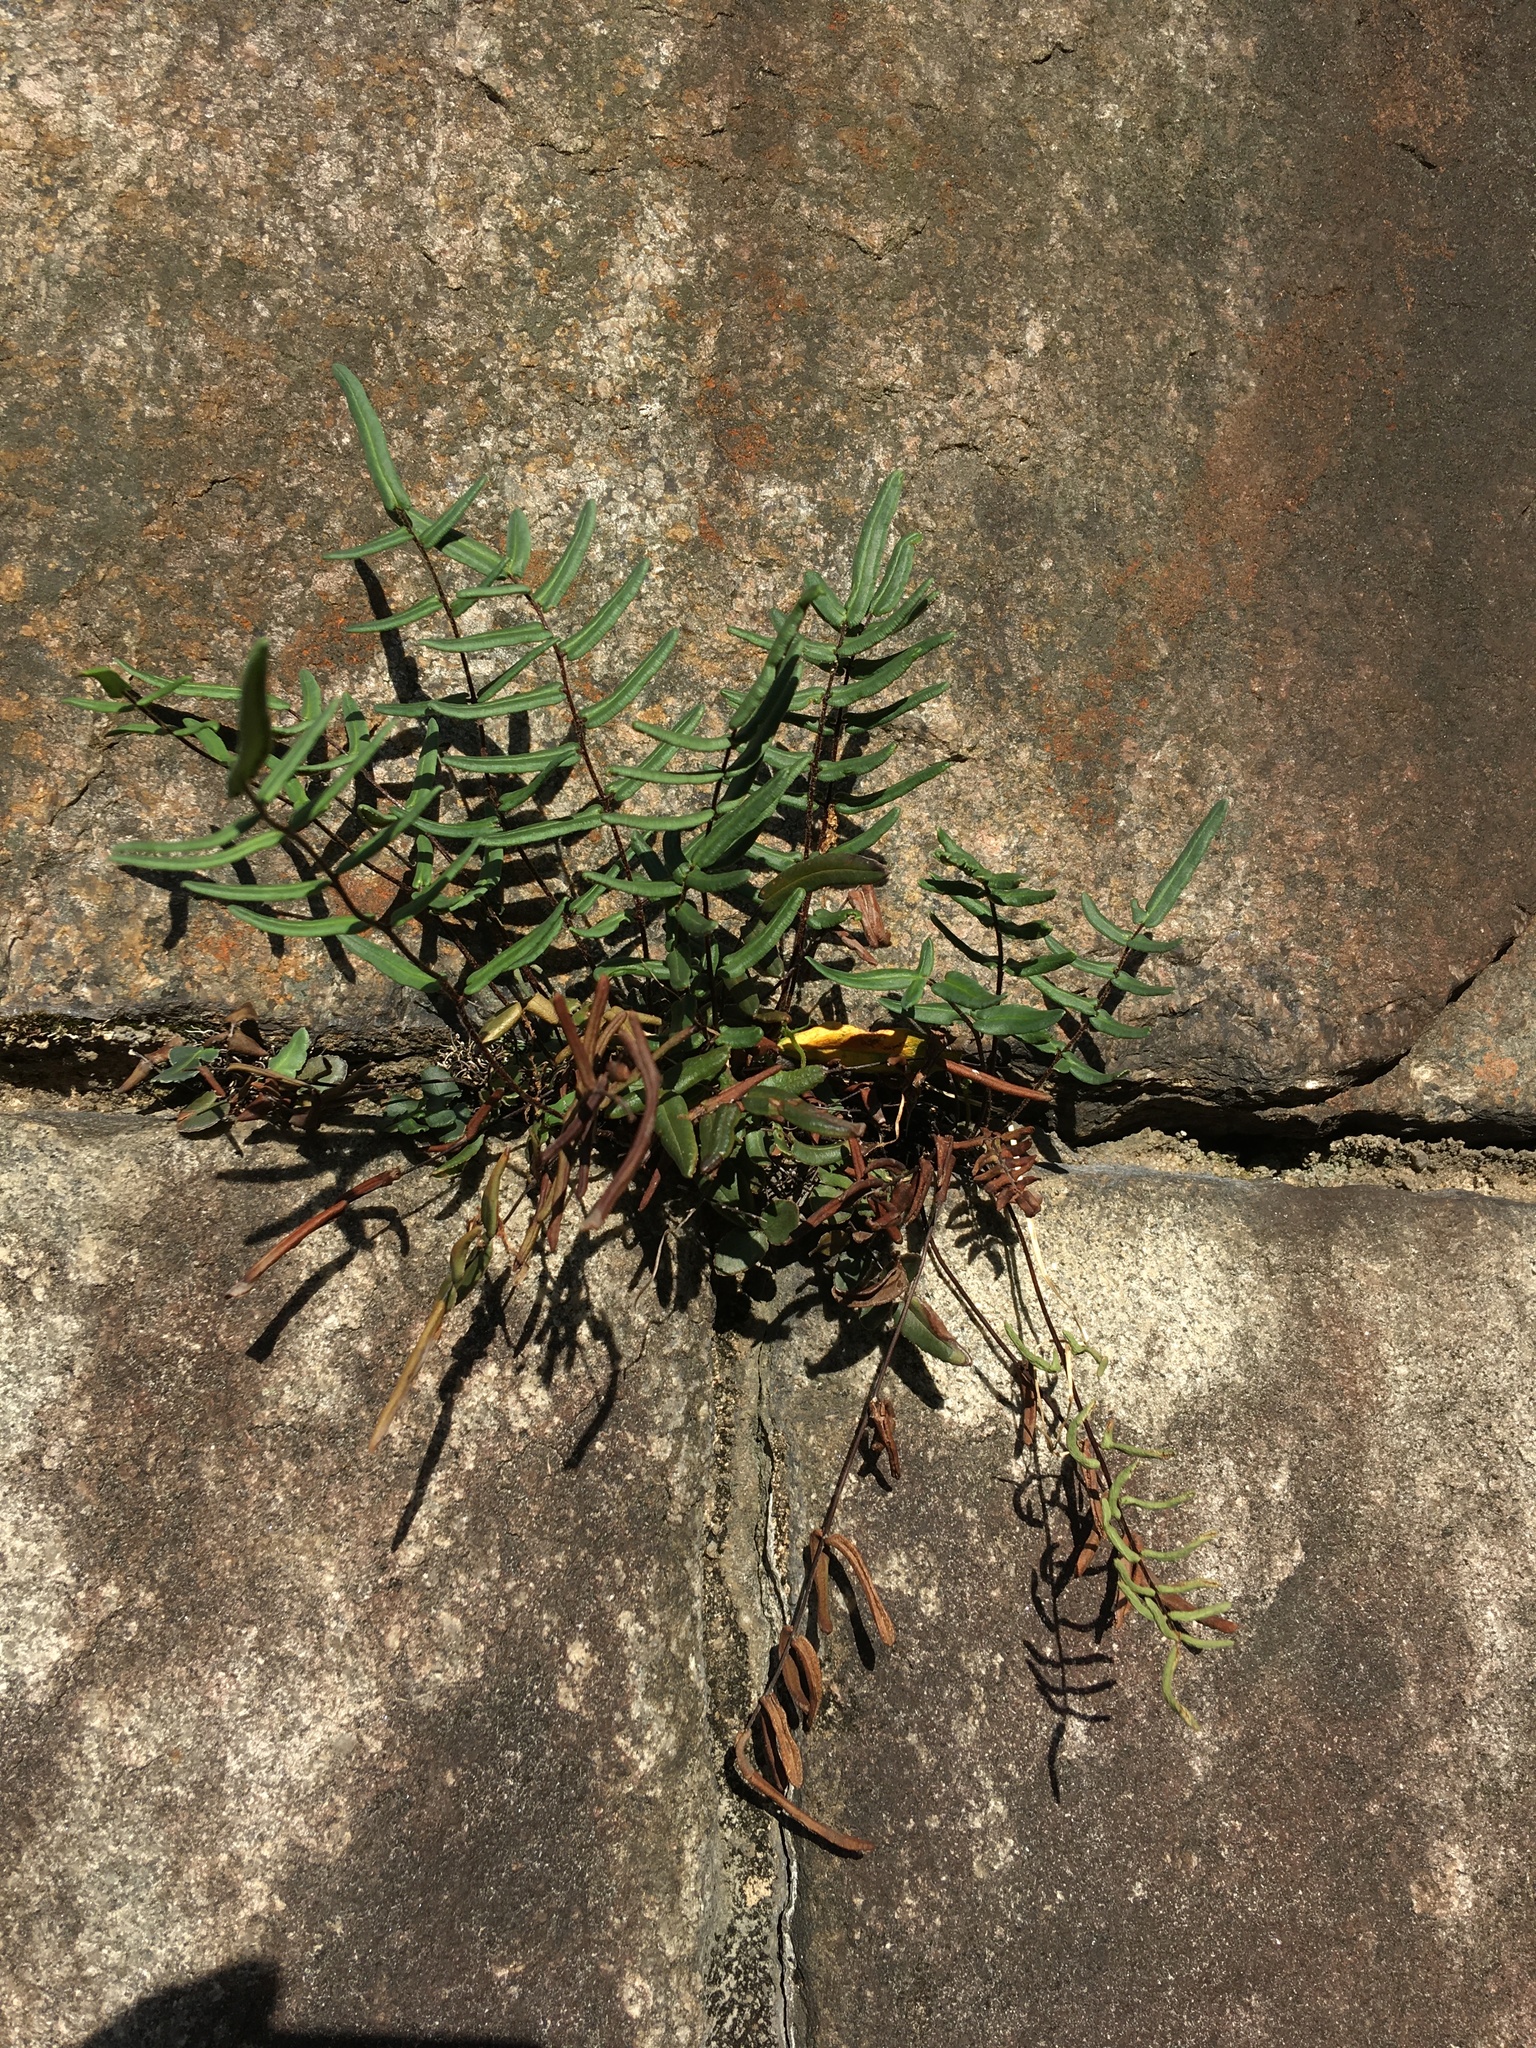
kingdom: Plantae
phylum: Tracheophyta
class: Polypodiopsida
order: Polypodiales
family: Pteridaceae
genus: Pellaea
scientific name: Pellaea atropurpurea
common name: Hairy cliffbrake
